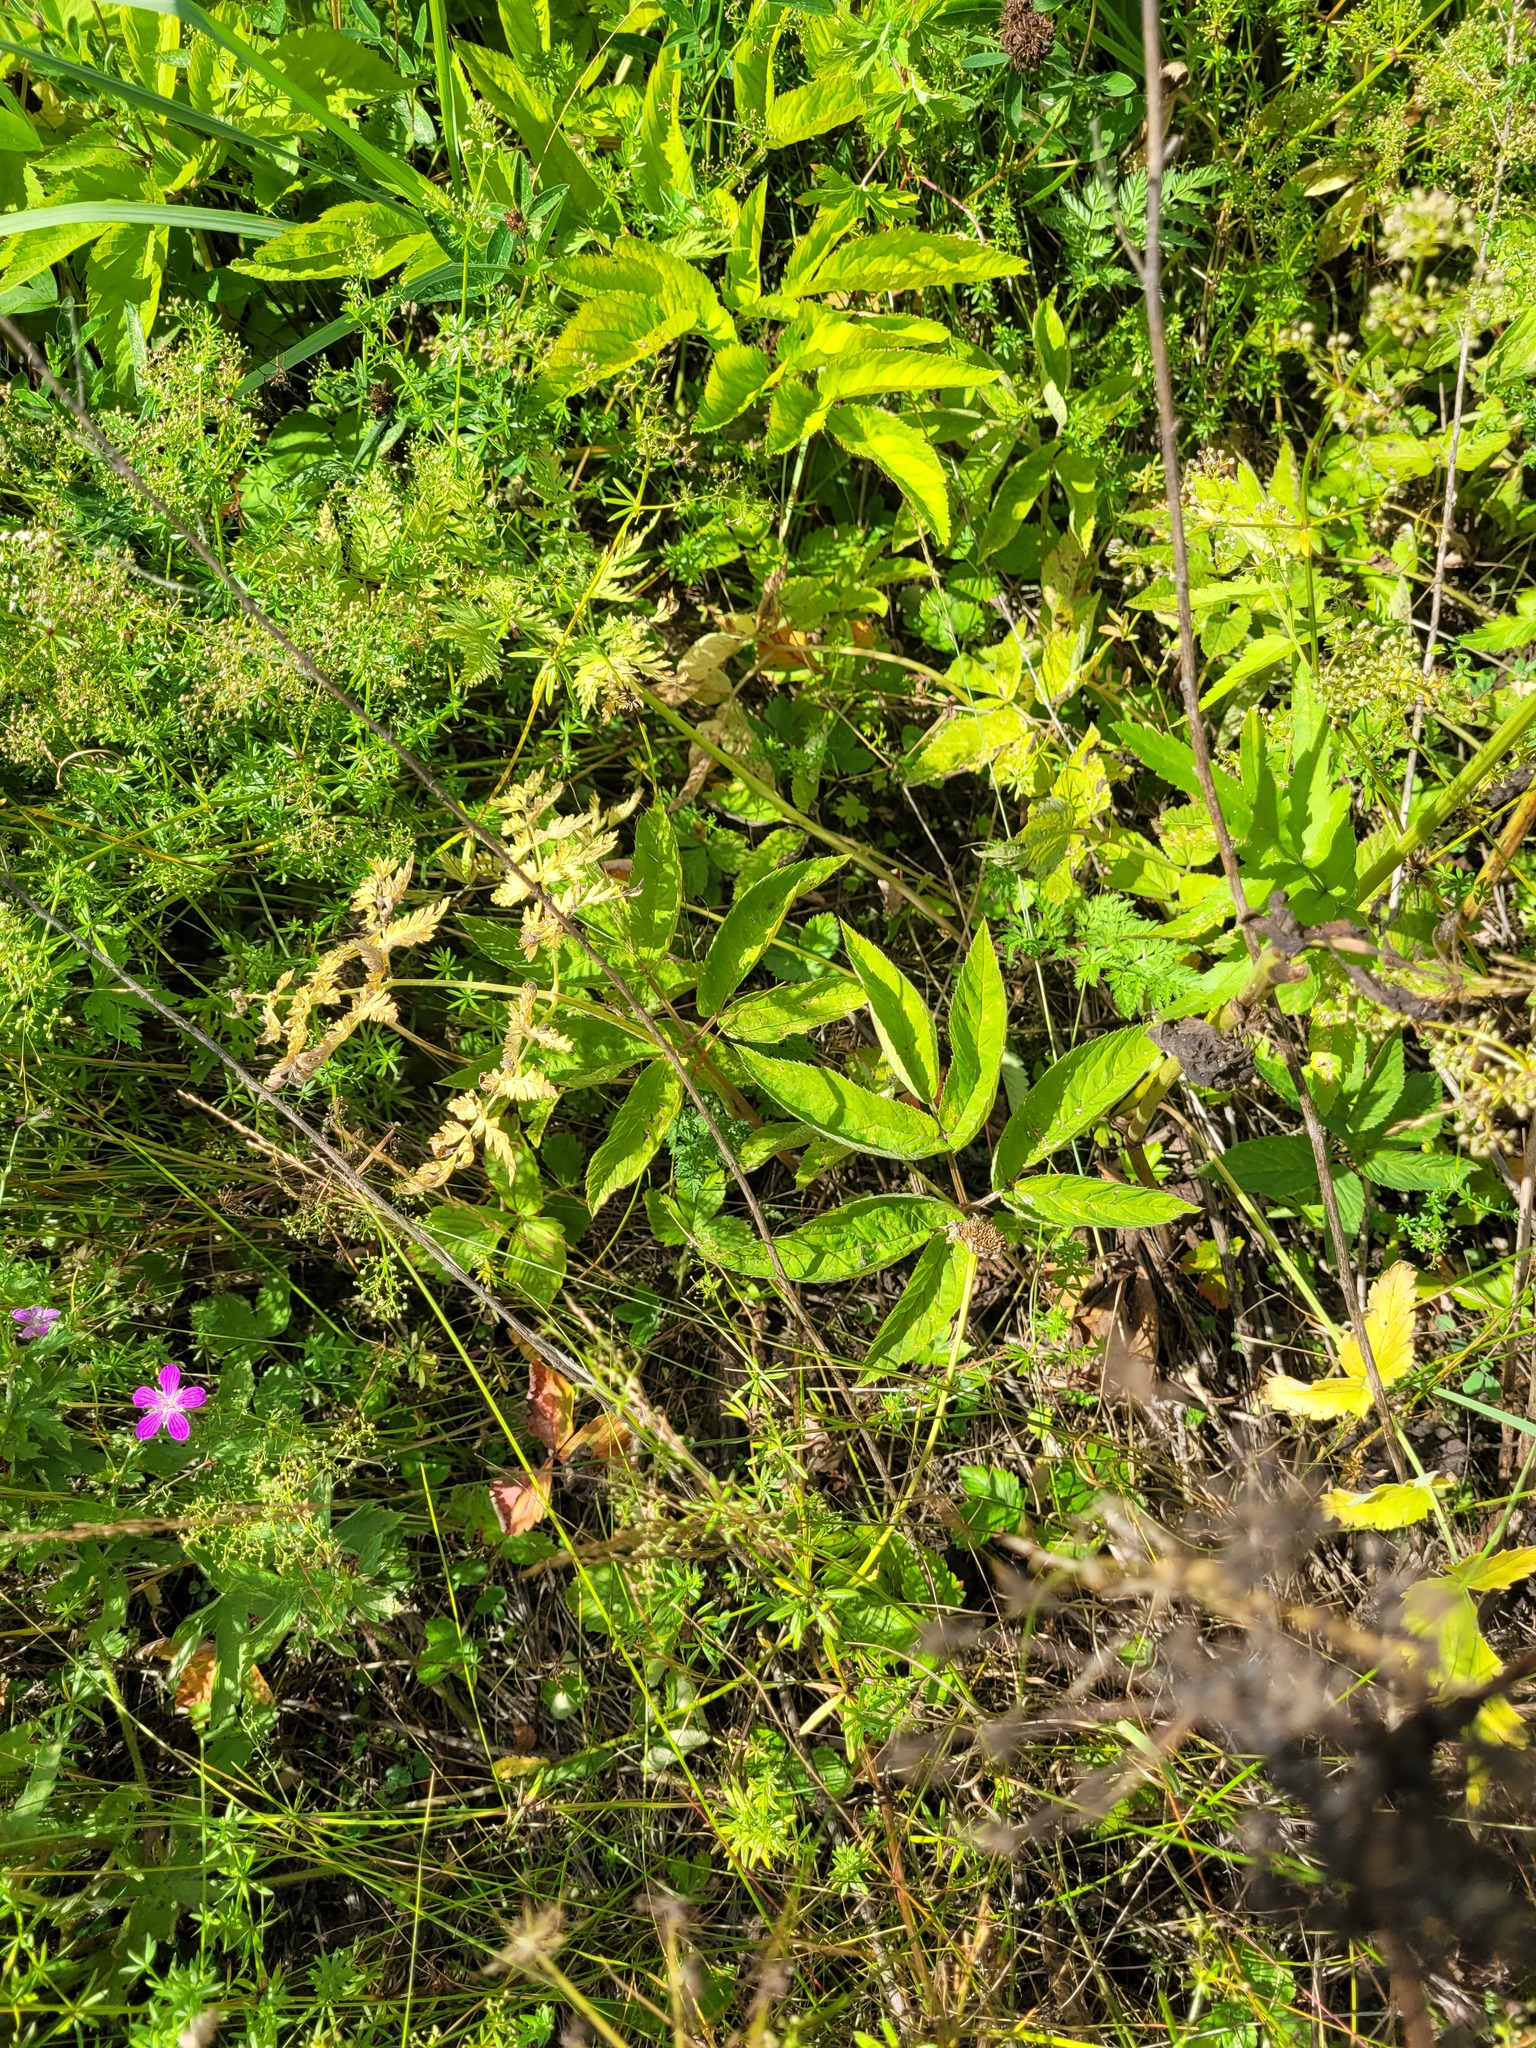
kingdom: Plantae
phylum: Tracheophyta
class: Magnoliopsida
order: Apiales
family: Apiaceae
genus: Aegopodium
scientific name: Aegopodium podagraria
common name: Ground-elder
